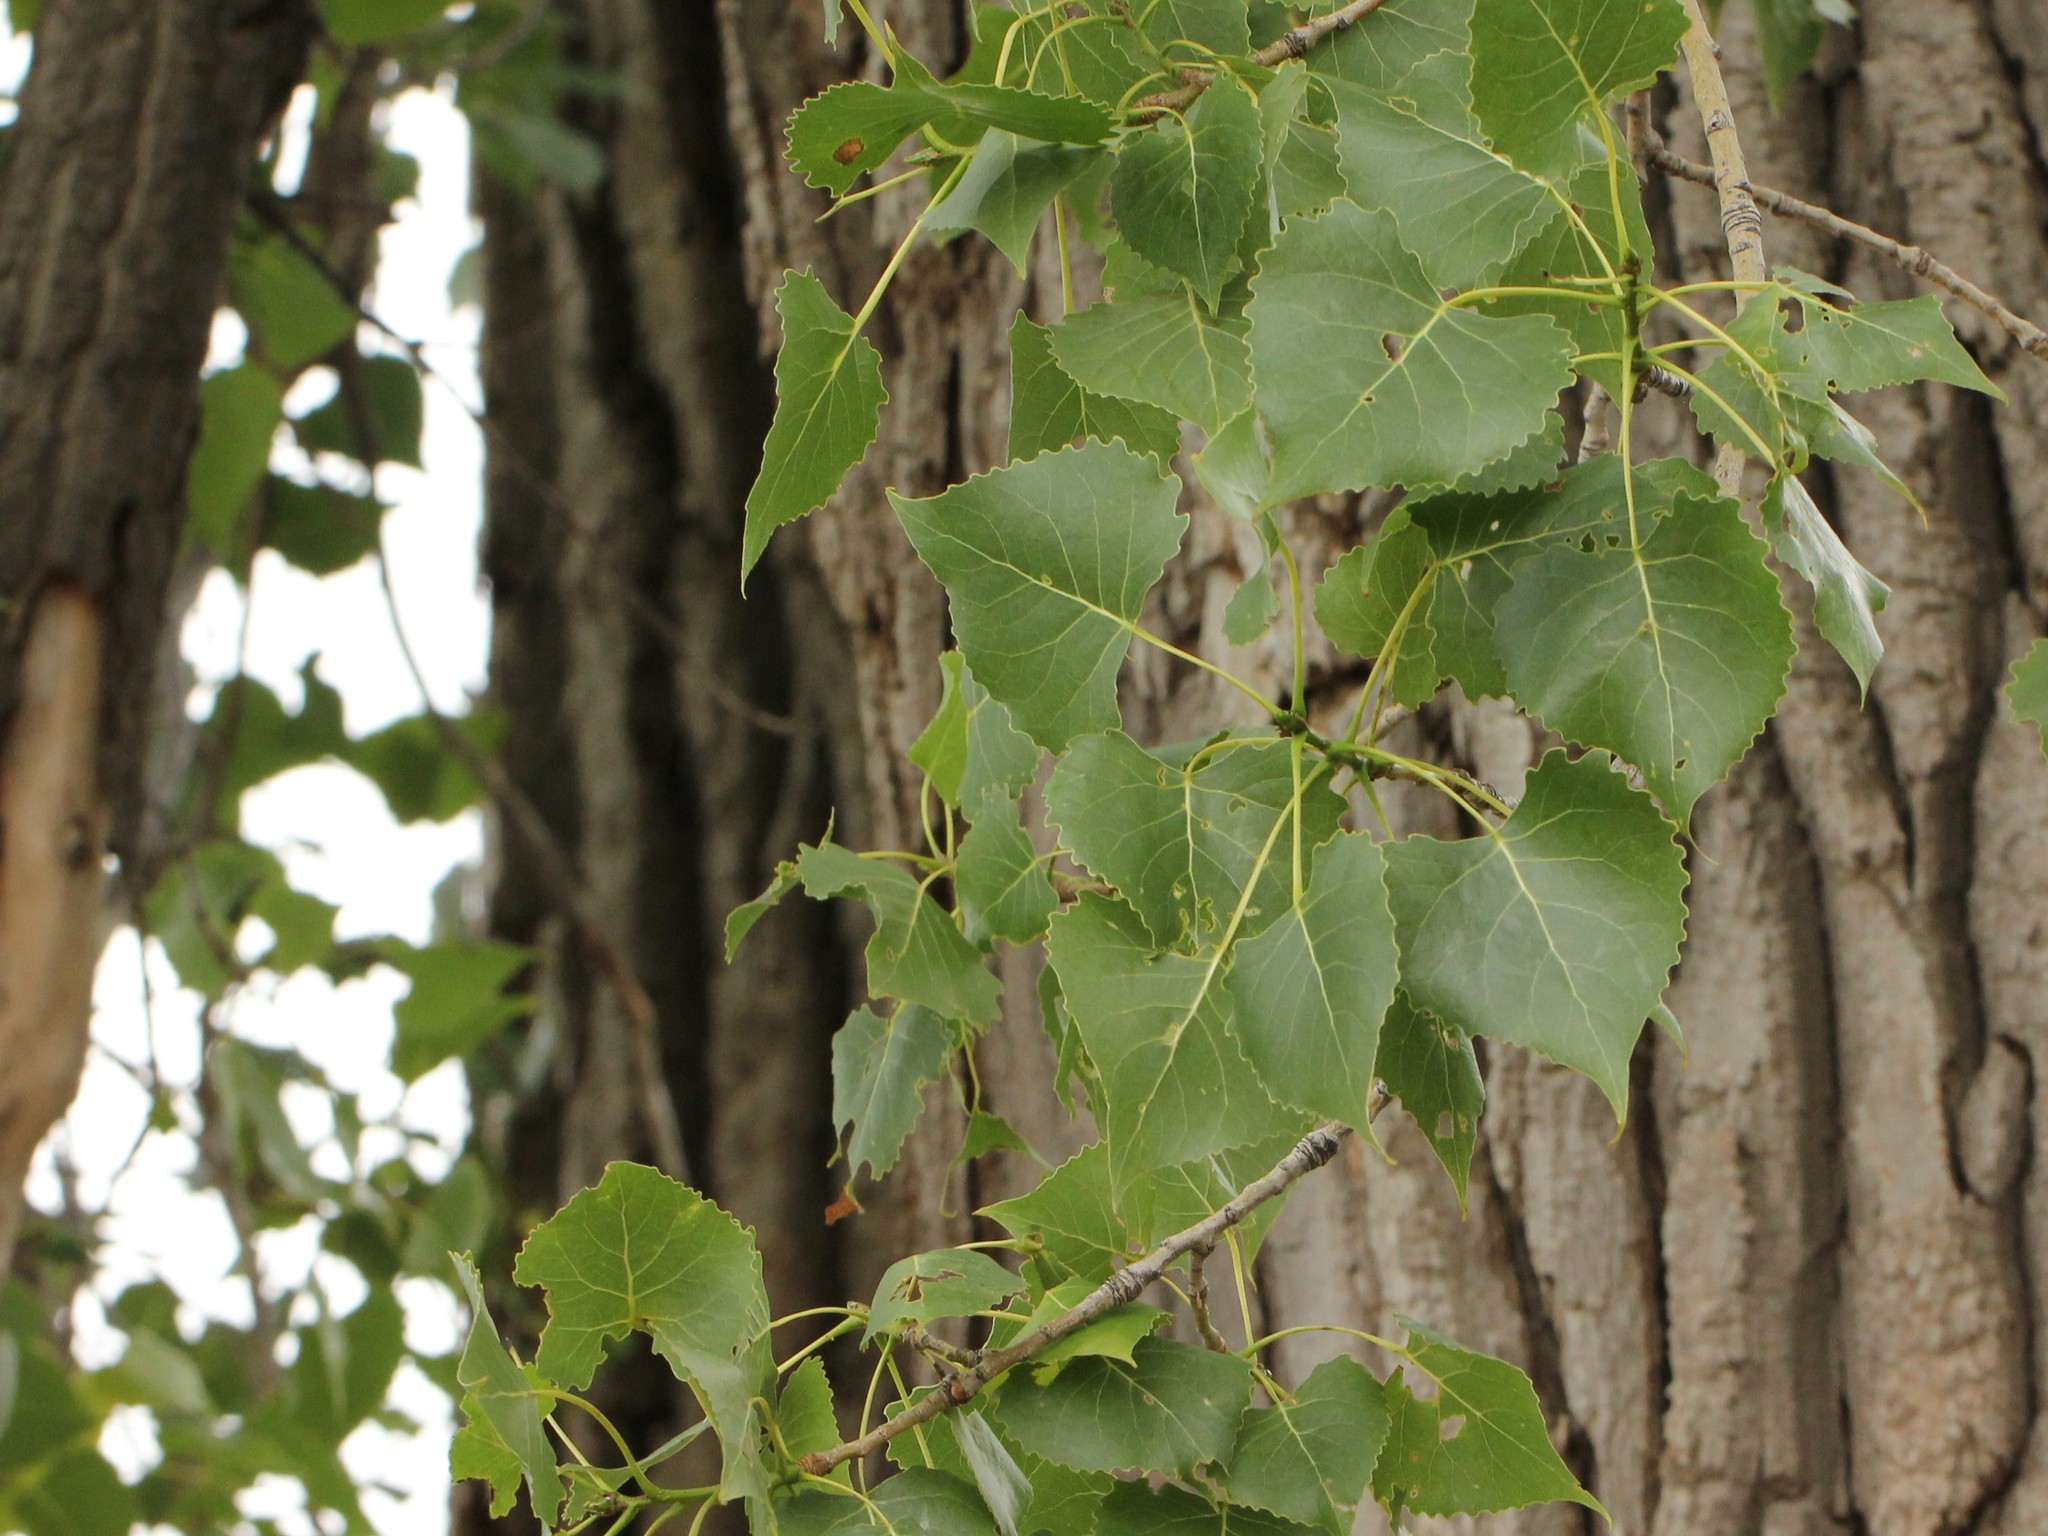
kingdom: Plantae
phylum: Tracheophyta
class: Magnoliopsida
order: Malpighiales
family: Salicaceae
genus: Populus
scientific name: Populus deltoides
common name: Eastern cottonwood
